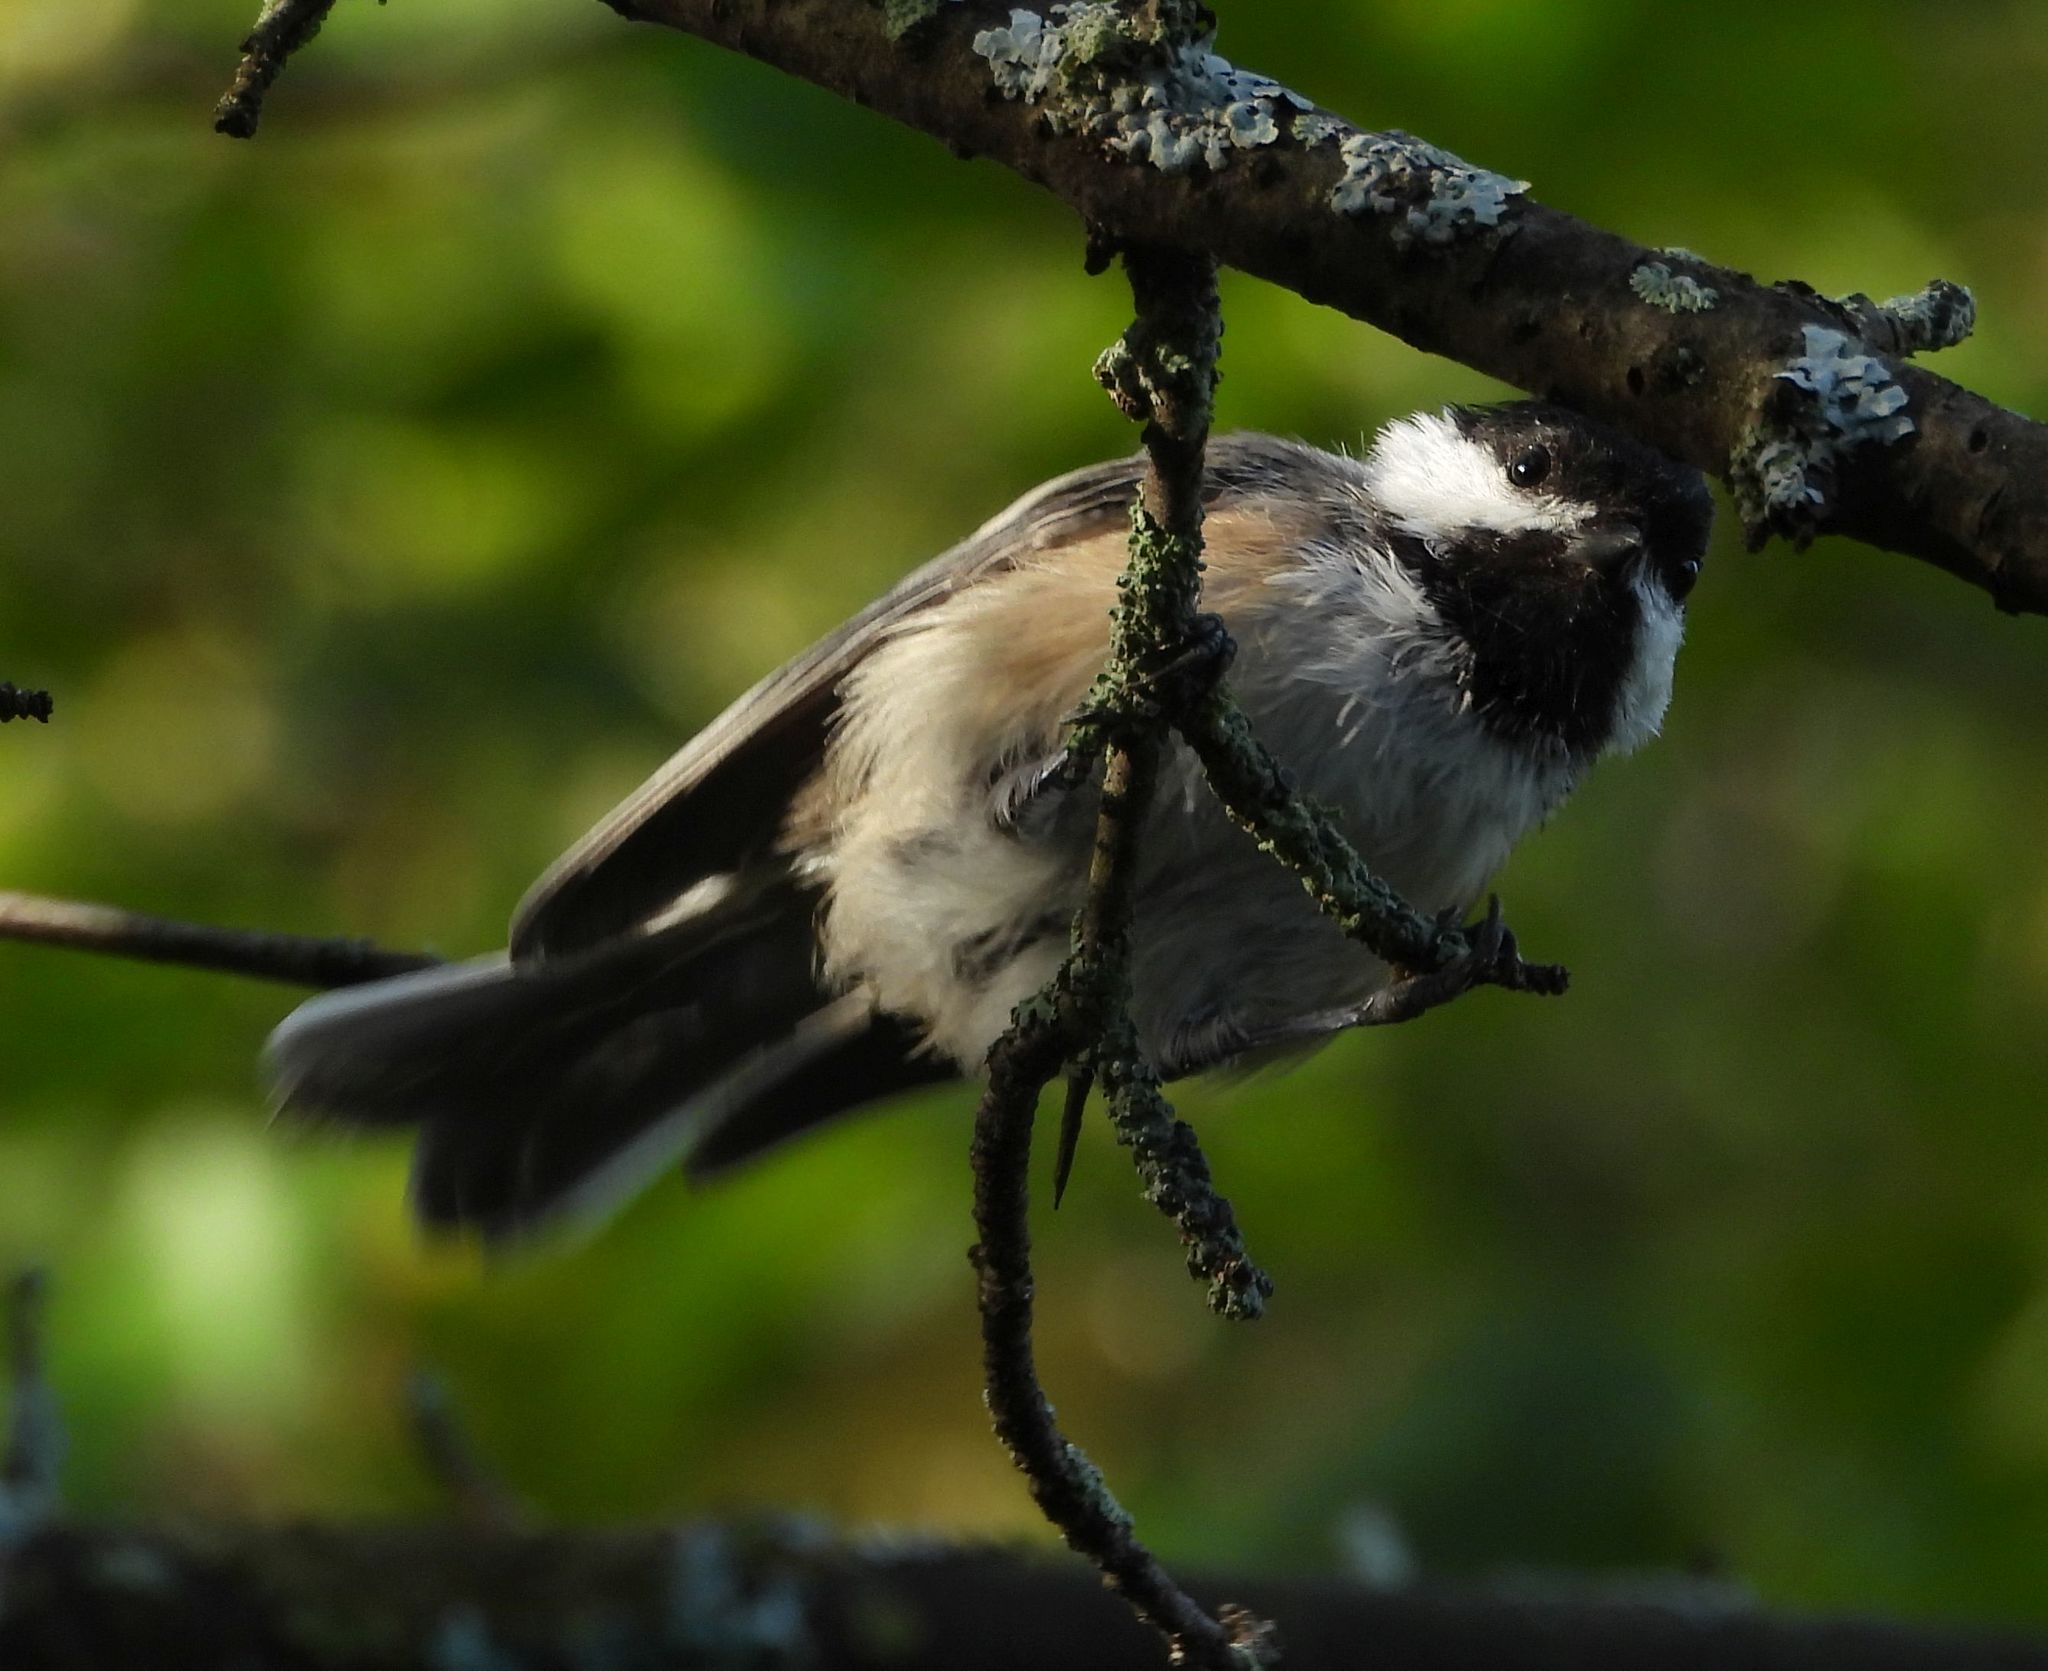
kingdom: Animalia
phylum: Chordata
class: Aves
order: Passeriformes
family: Paridae
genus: Poecile
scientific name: Poecile atricapillus
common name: Black-capped chickadee
